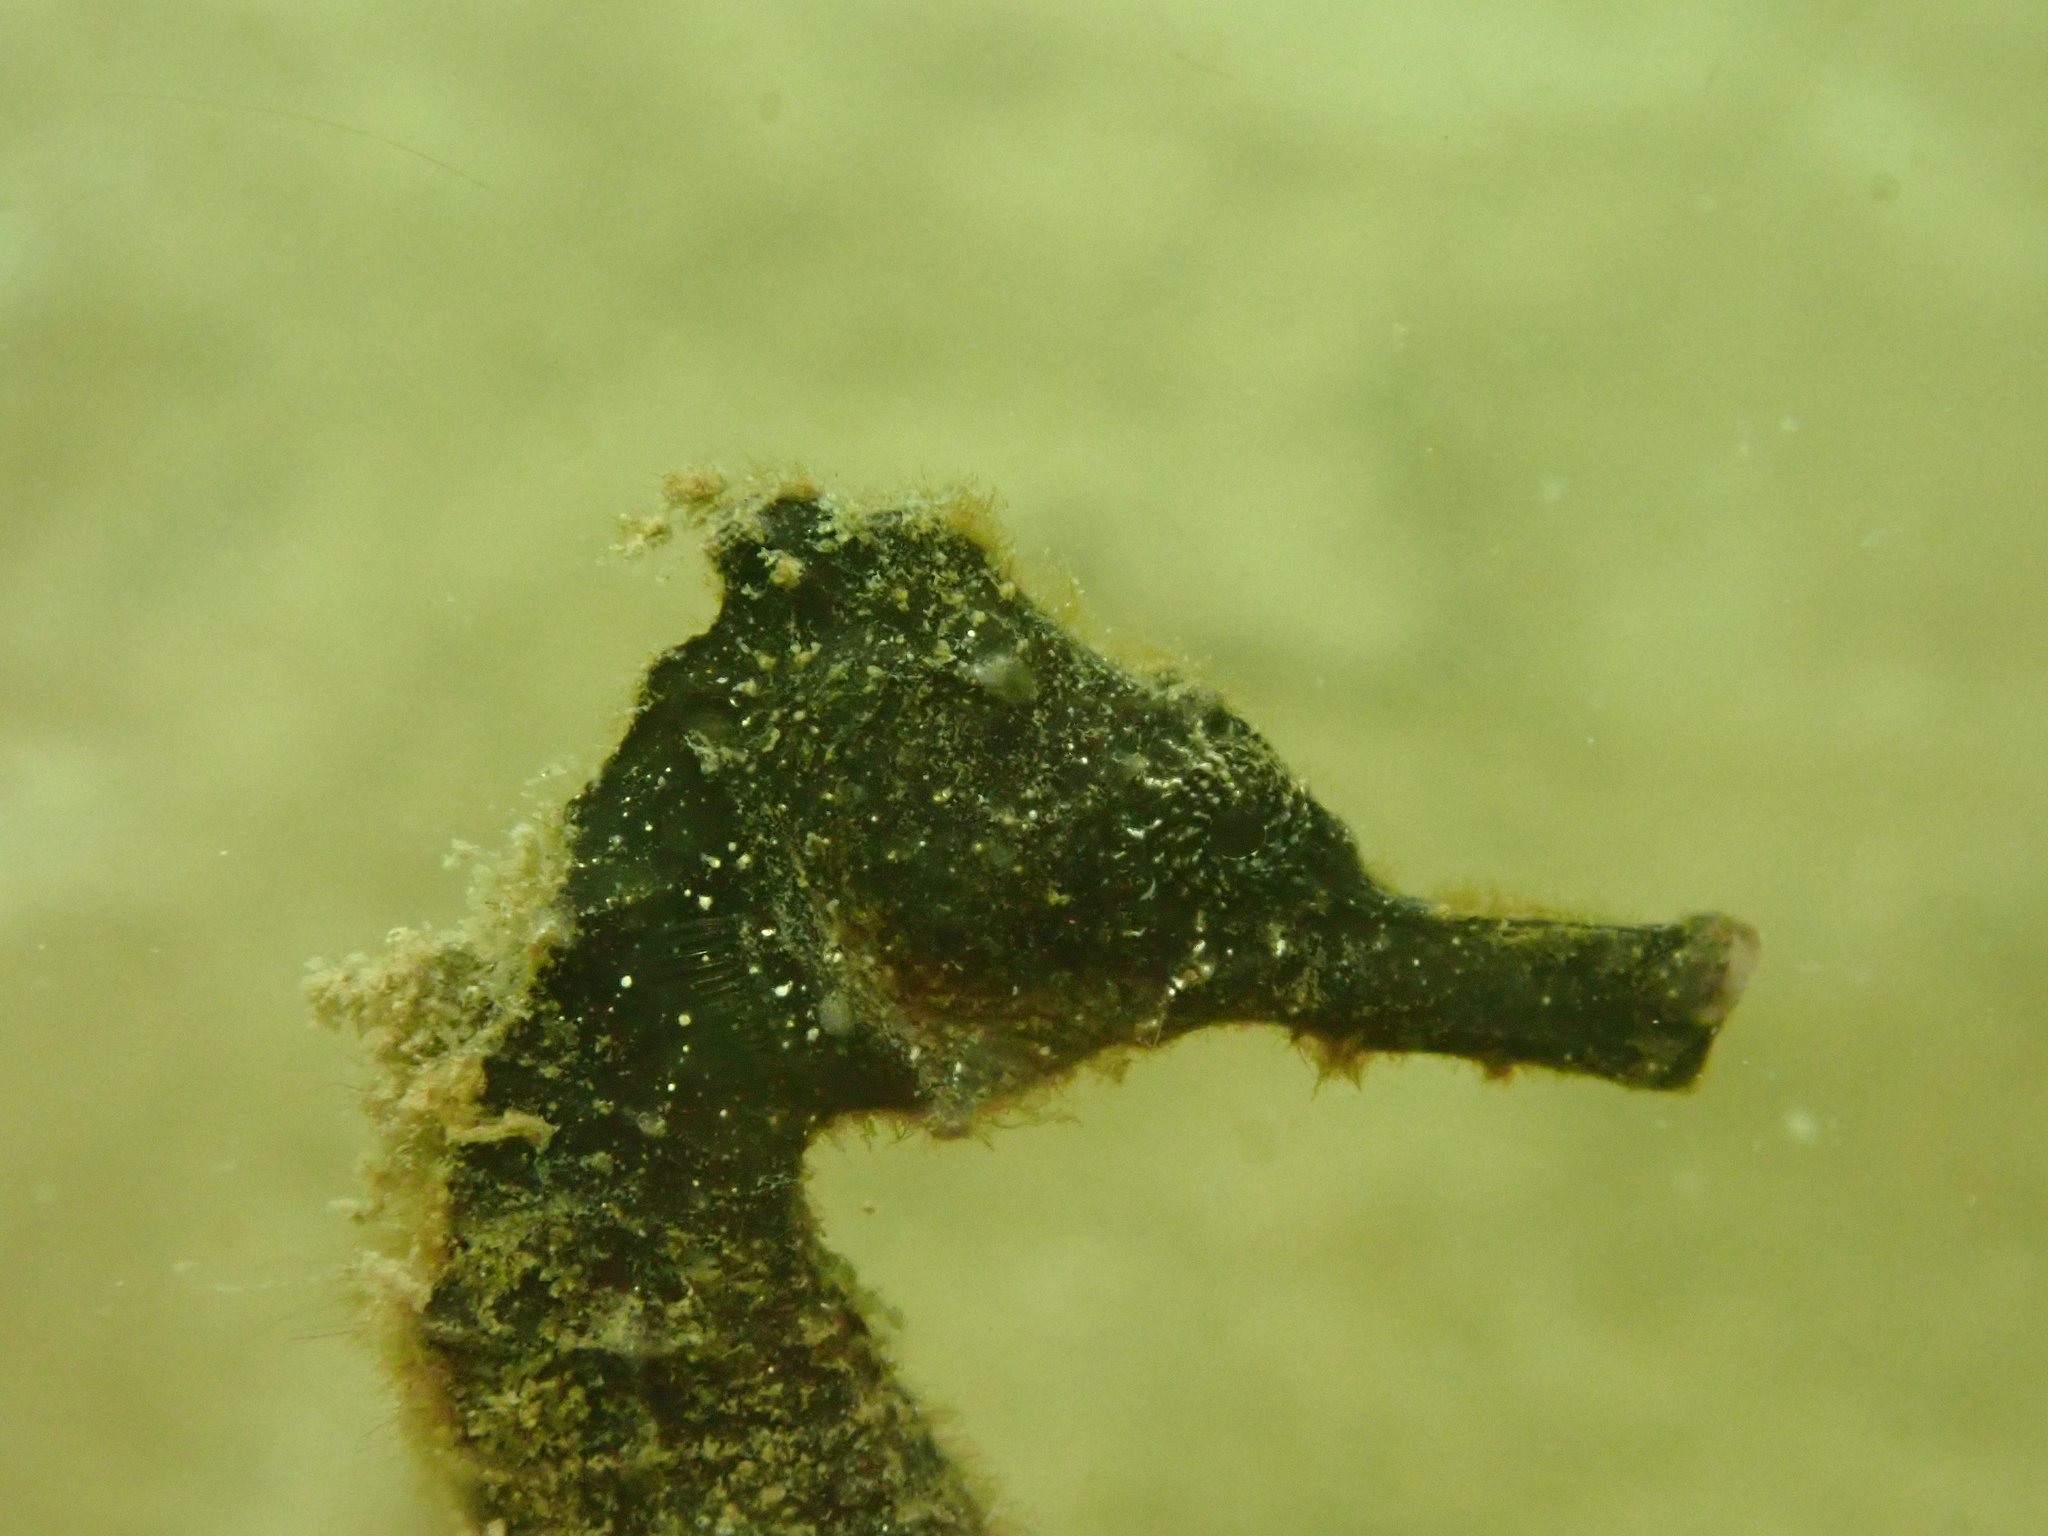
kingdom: Animalia
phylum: Chordata
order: Syngnathiformes
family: Syngnathidae
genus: Hippocampus
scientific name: Hippocampus kuda
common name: Spotted seahorse
